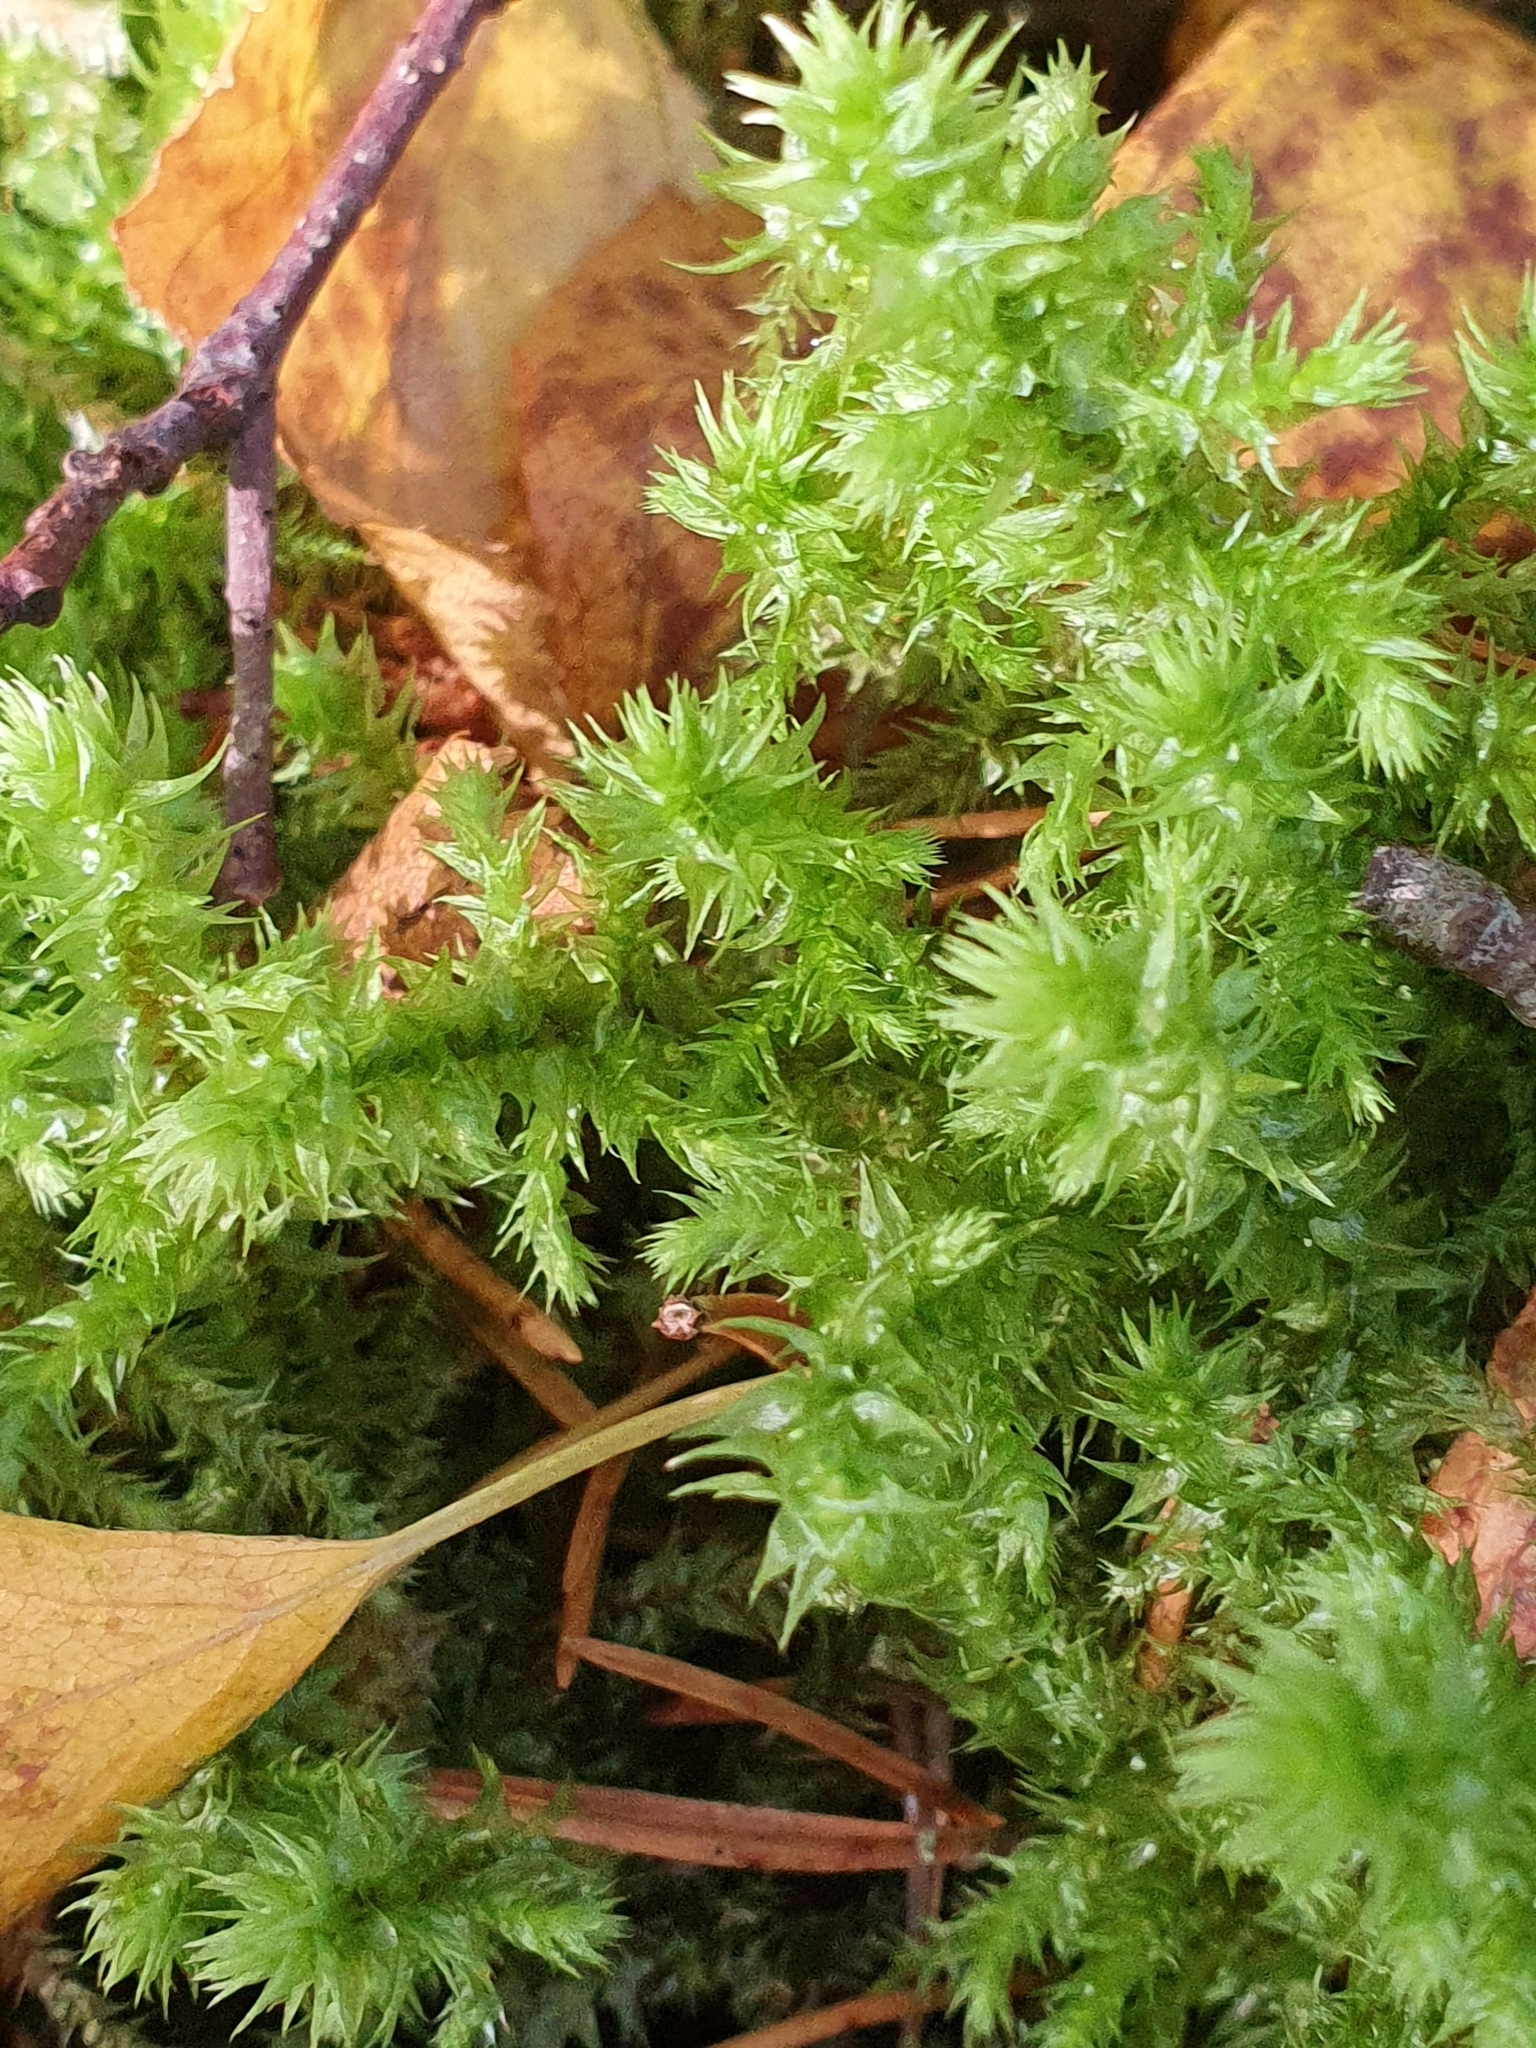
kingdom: Plantae
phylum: Bryophyta
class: Bryopsida
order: Hypnales
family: Hylocomiaceae
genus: Hylocomiadelphus
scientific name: Hylocomiadelphus triquetrus
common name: Rough goose neck moss
